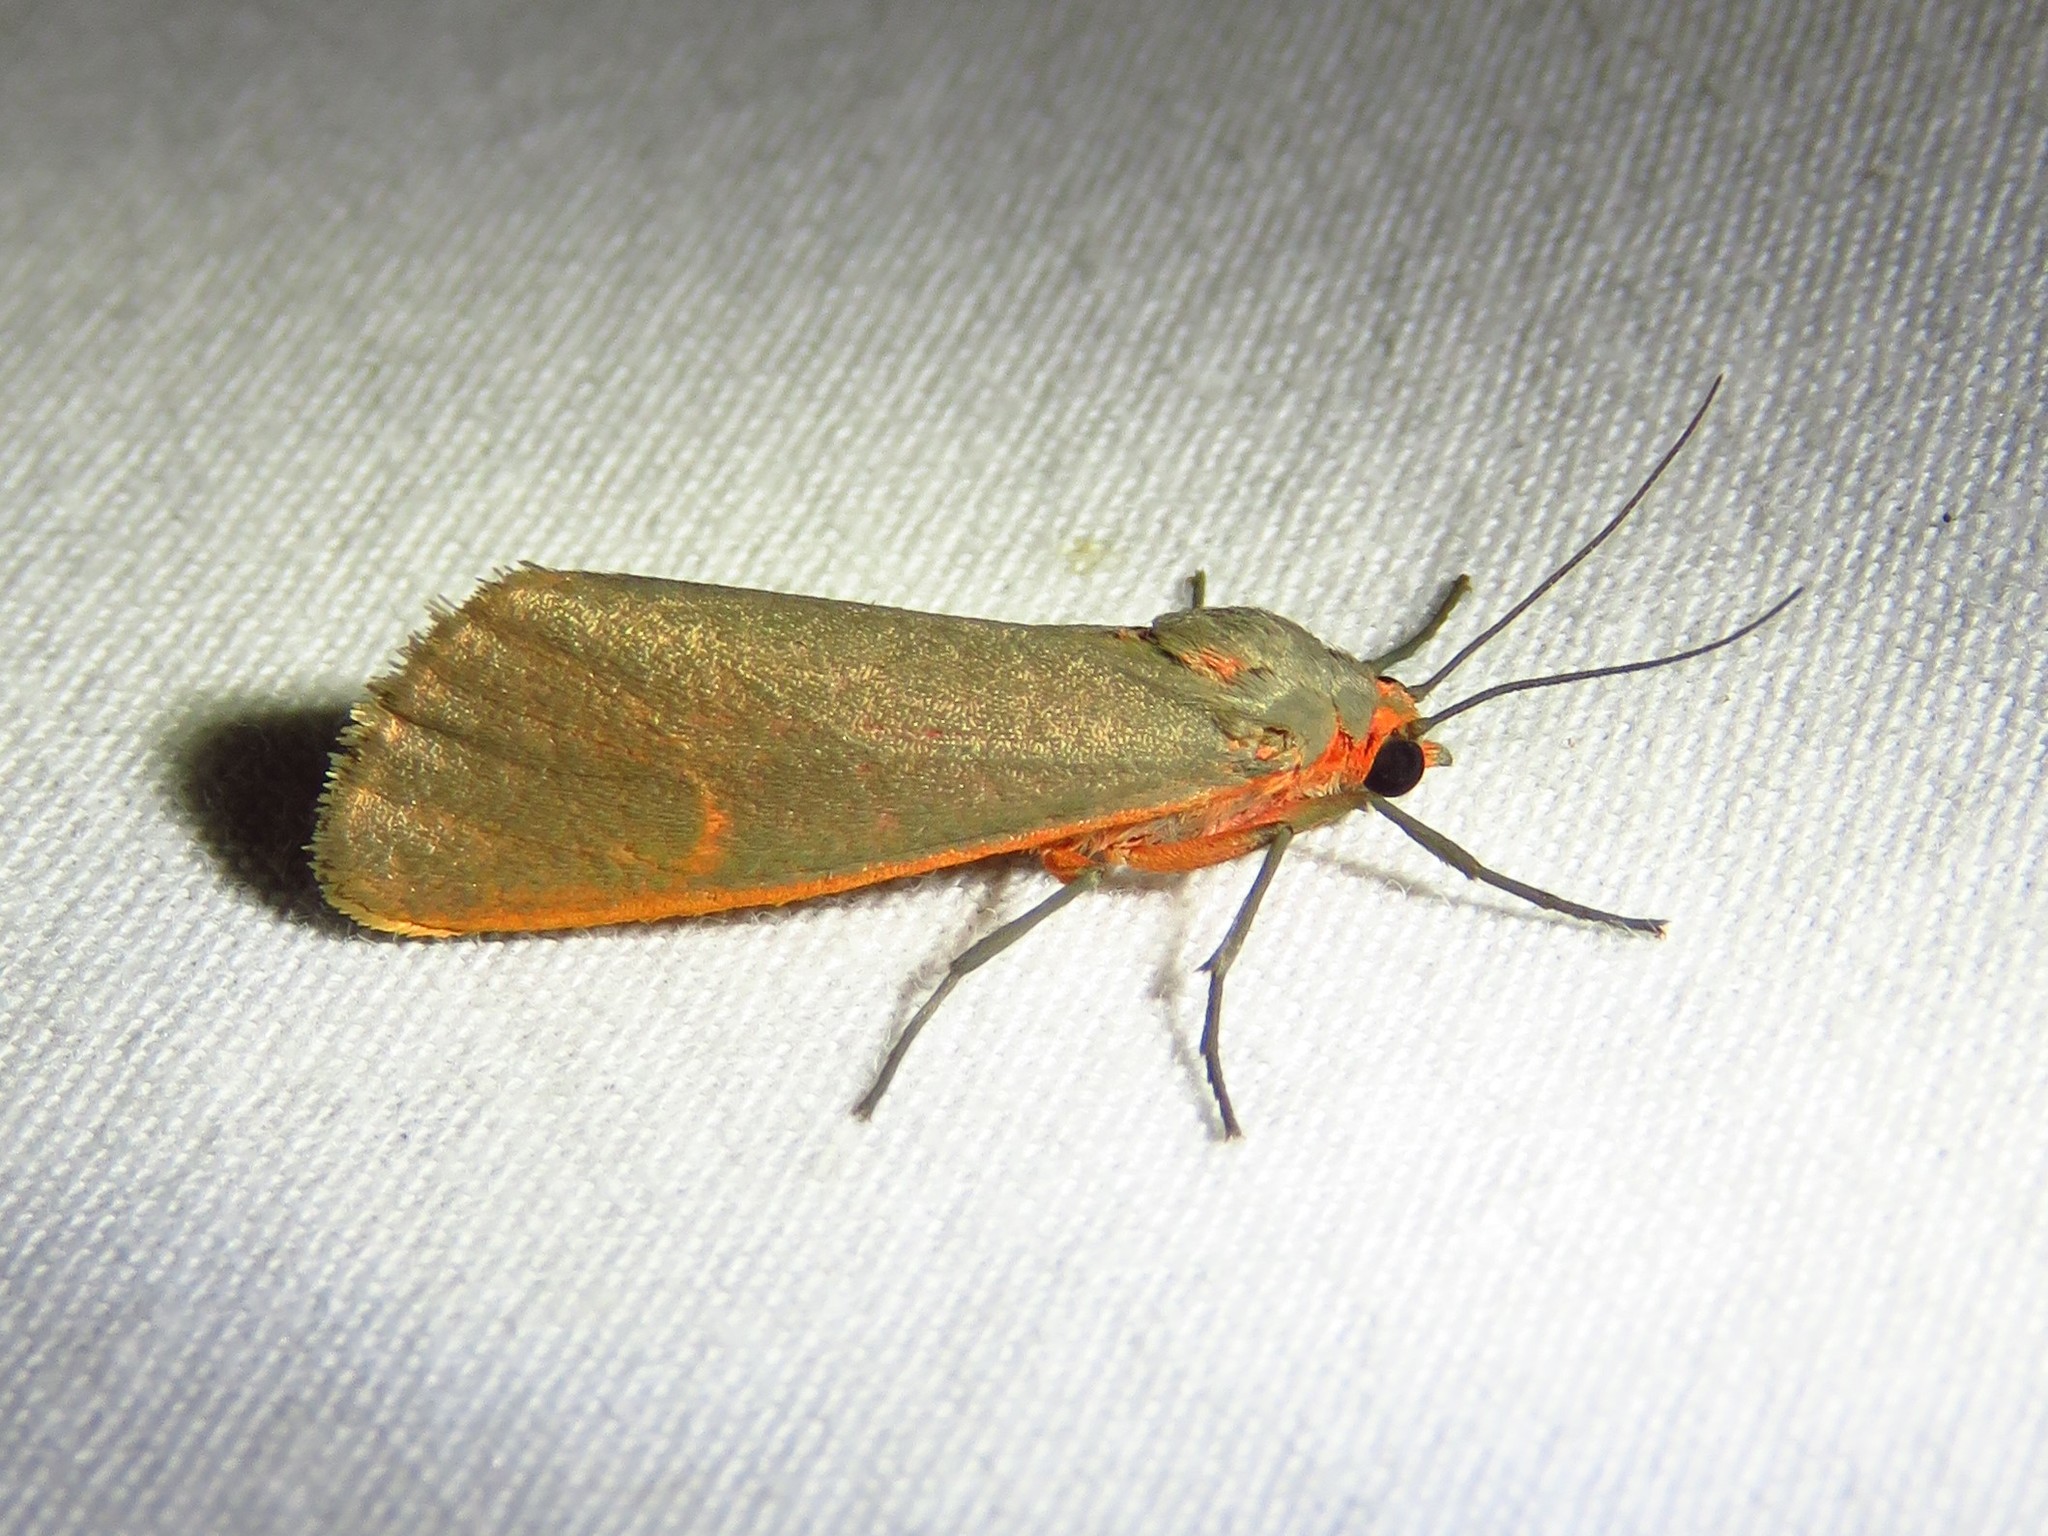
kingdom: Animalia
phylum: Arthropoda
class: Insecta
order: Lepidoptera
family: Erebidae
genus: Virbia
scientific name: Virbia costata
